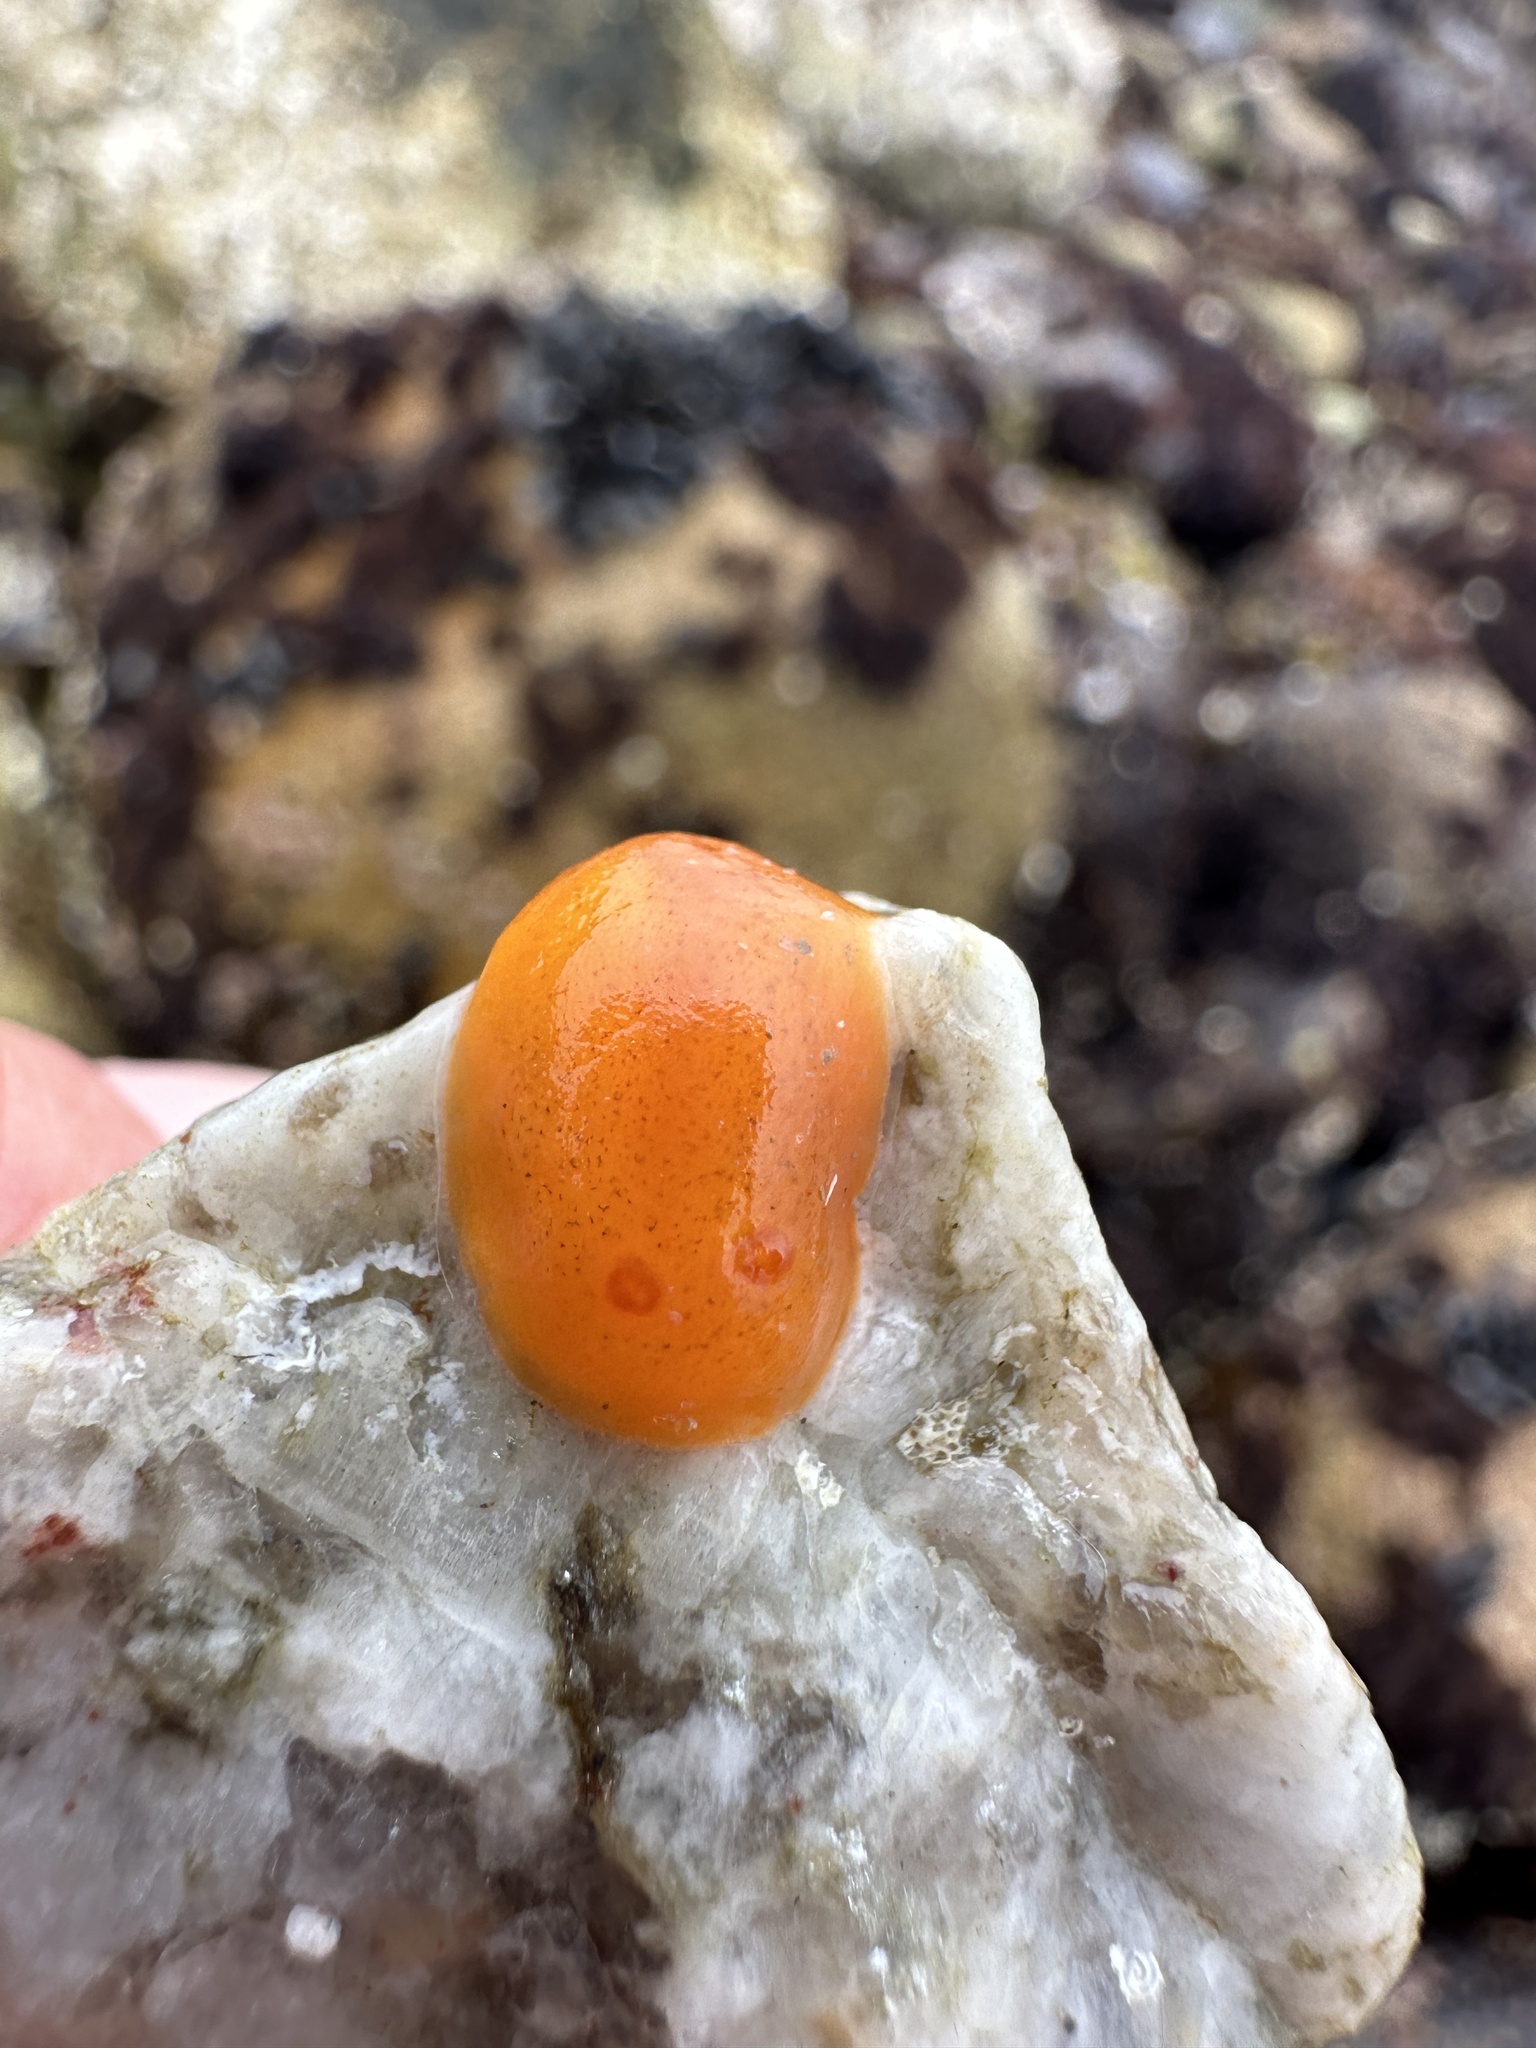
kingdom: Animalia
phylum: Mollusca
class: Gastropoda
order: Nudibranchia
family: Discodorididae
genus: Rostanga
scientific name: Rostanga pulchra
